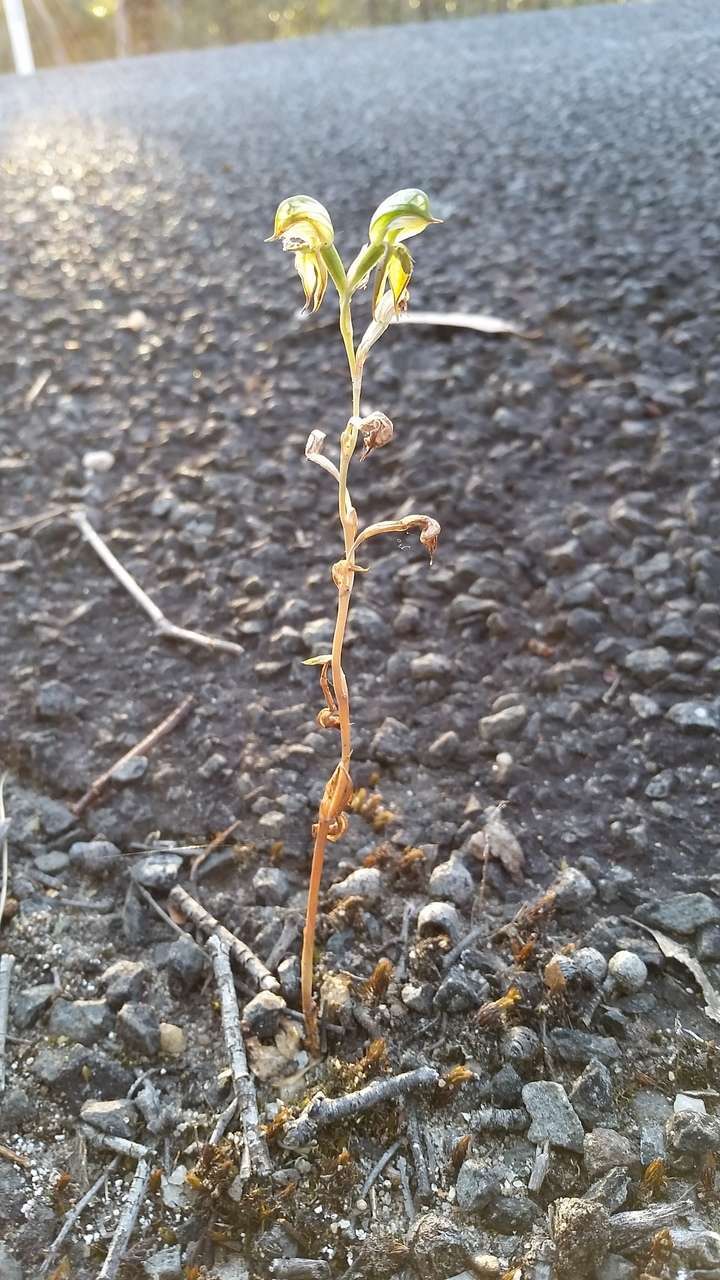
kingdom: Plantae
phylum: Tracheophyta
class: Liliopsida
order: Asparagales
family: Orchidaceae
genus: Pterostylis
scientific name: Pterostylis squamata
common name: Ruddy greenhood
